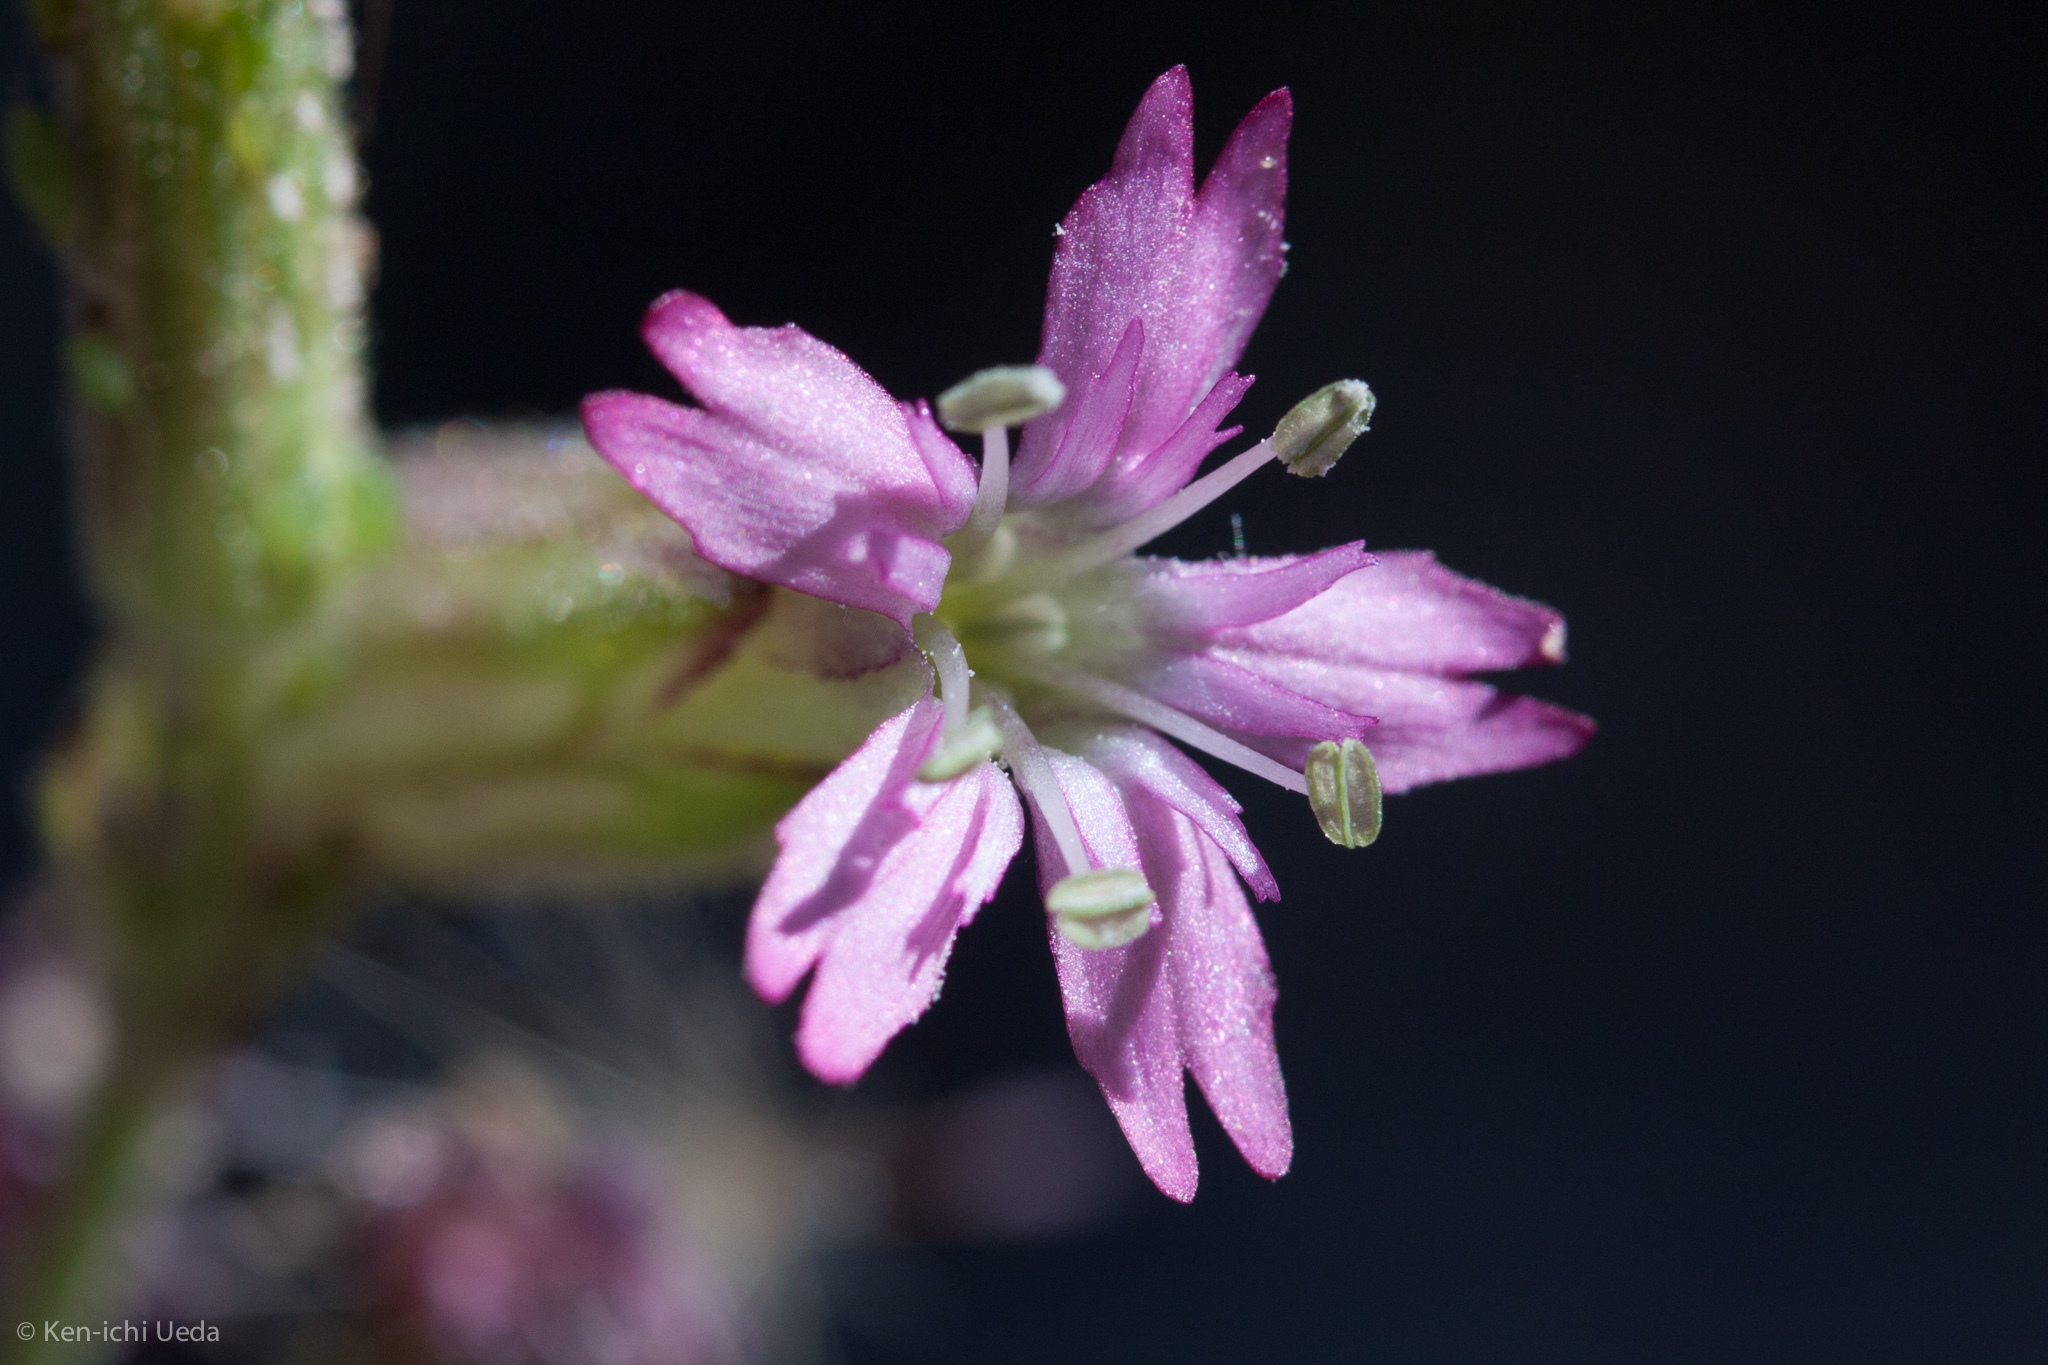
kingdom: Plantae
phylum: Tracheophyta
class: Magnoliopsida
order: Caryophyllales
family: Caryophyllaceae
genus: Silene
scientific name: Silene verecunda
